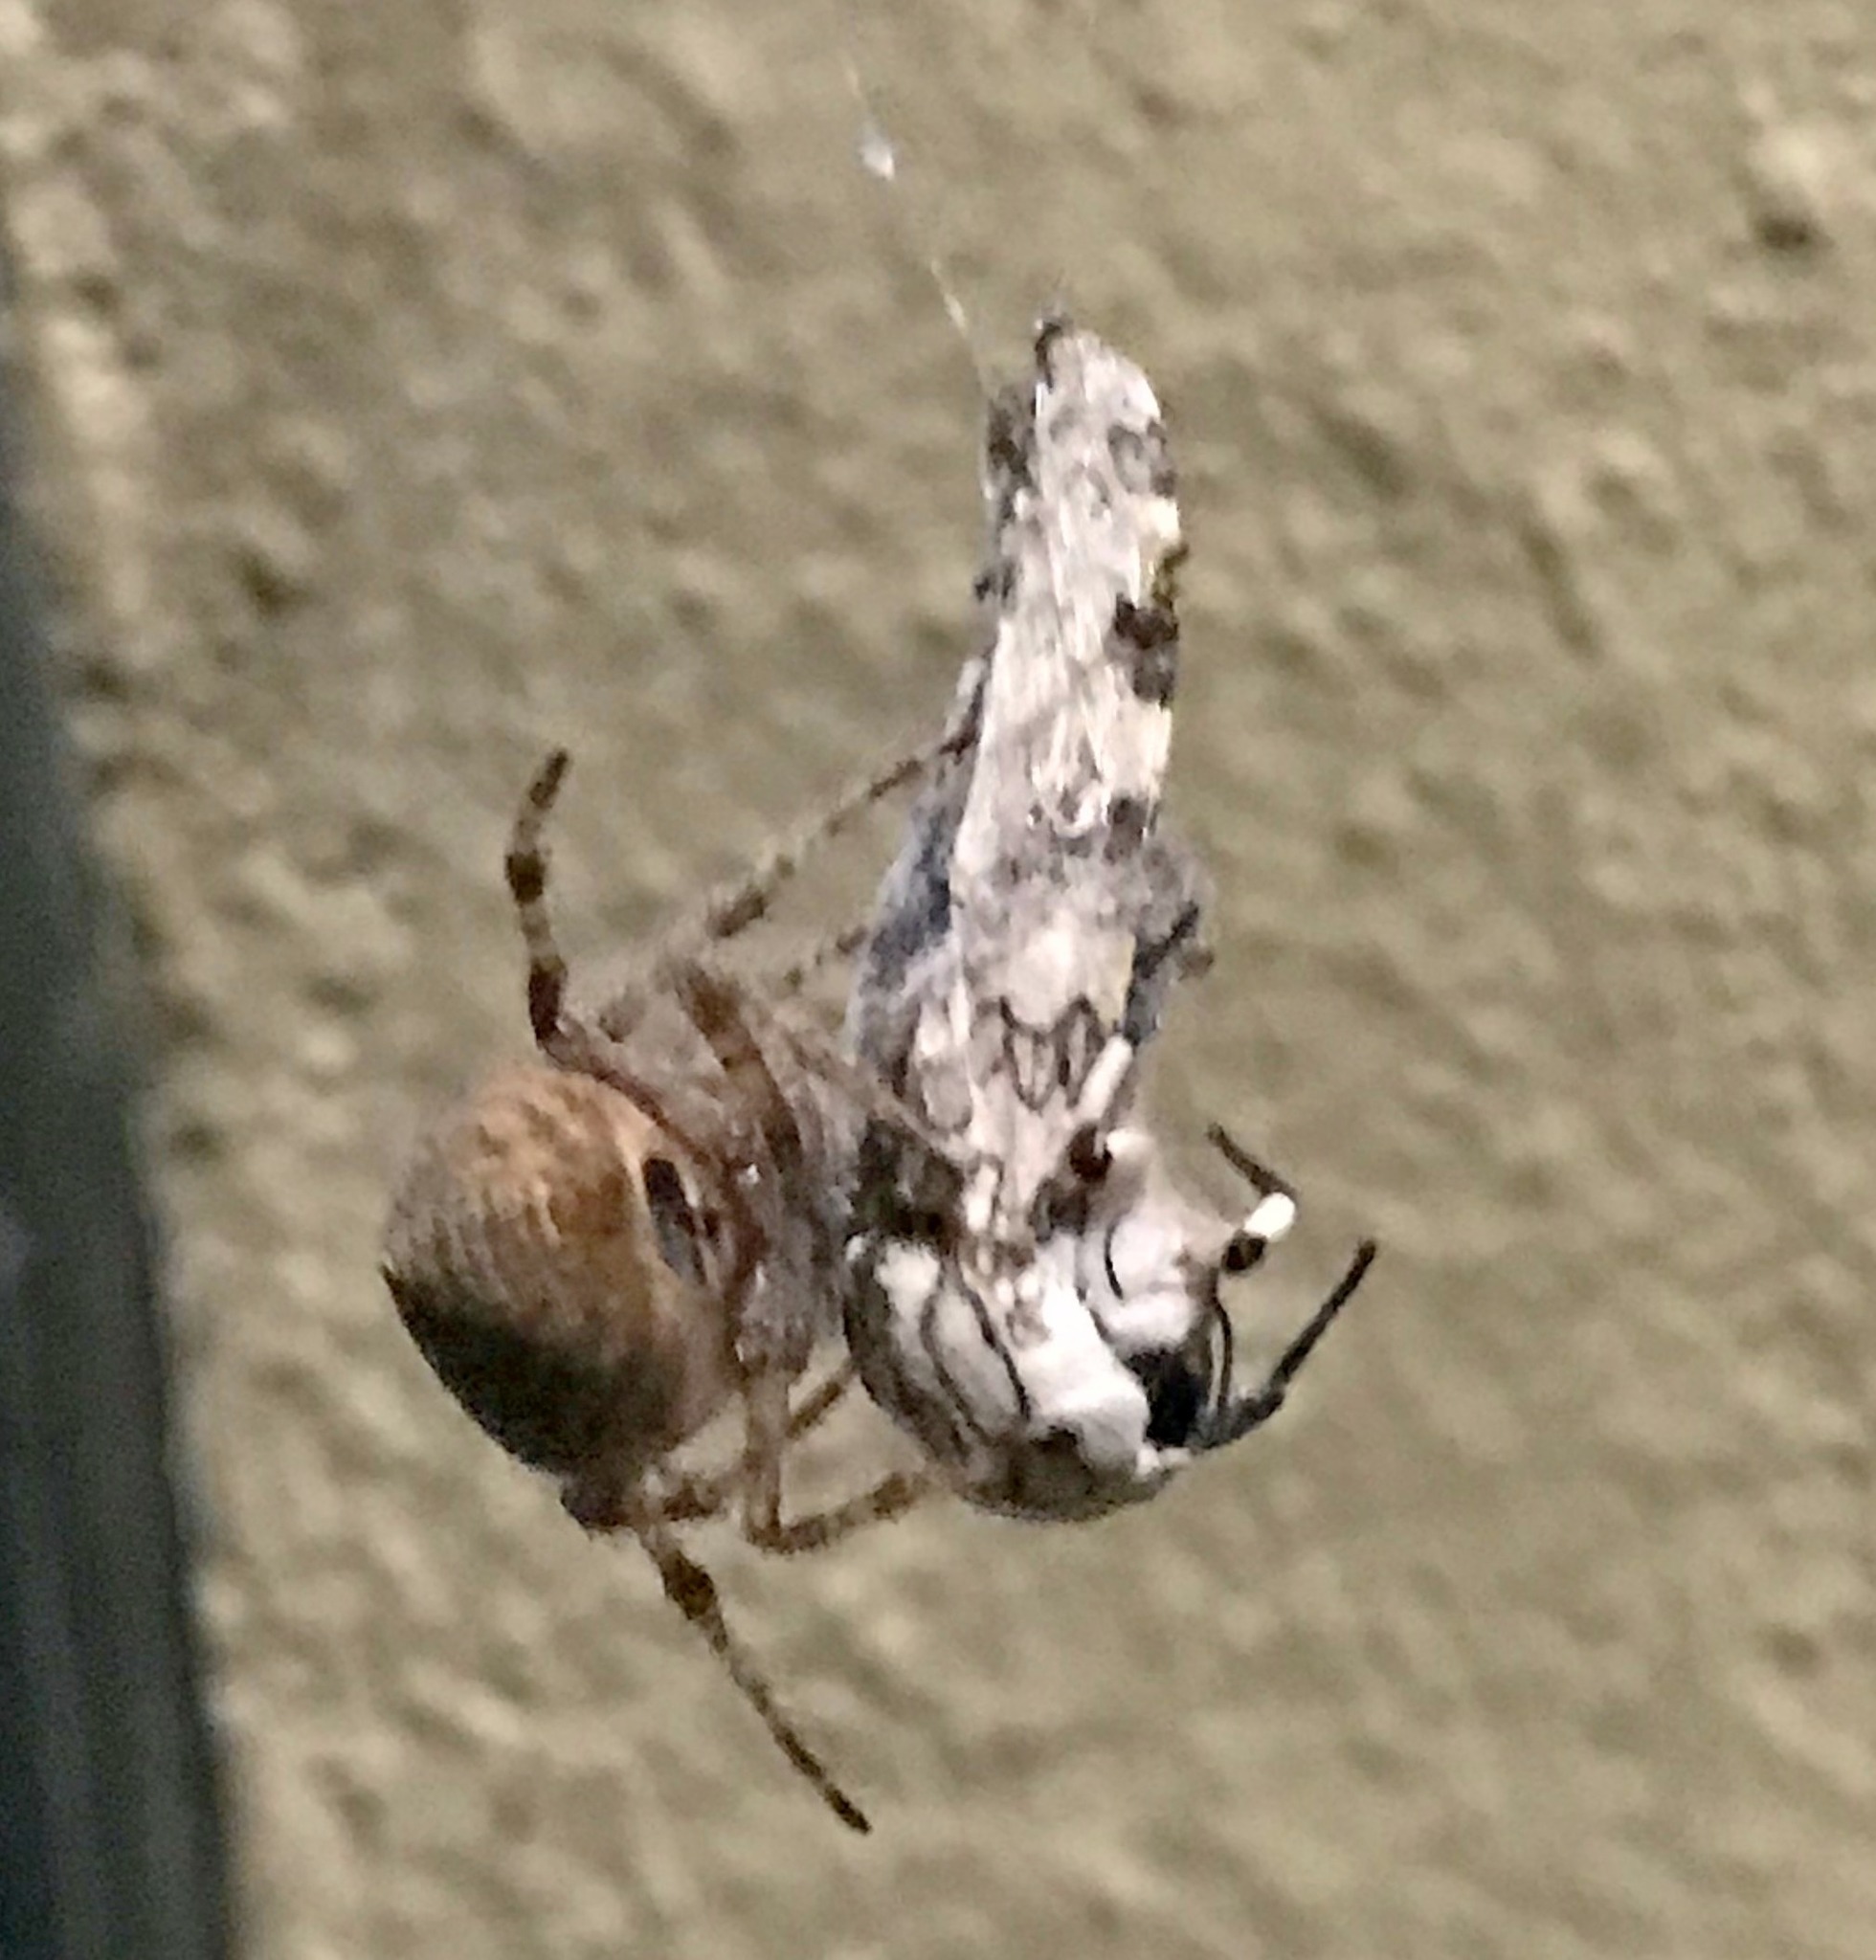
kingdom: Animalia
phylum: Arthropoda
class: Arachnida
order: Araneae
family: Araneidae
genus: Eriophora
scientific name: Eriophora edax
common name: Orb weavers
